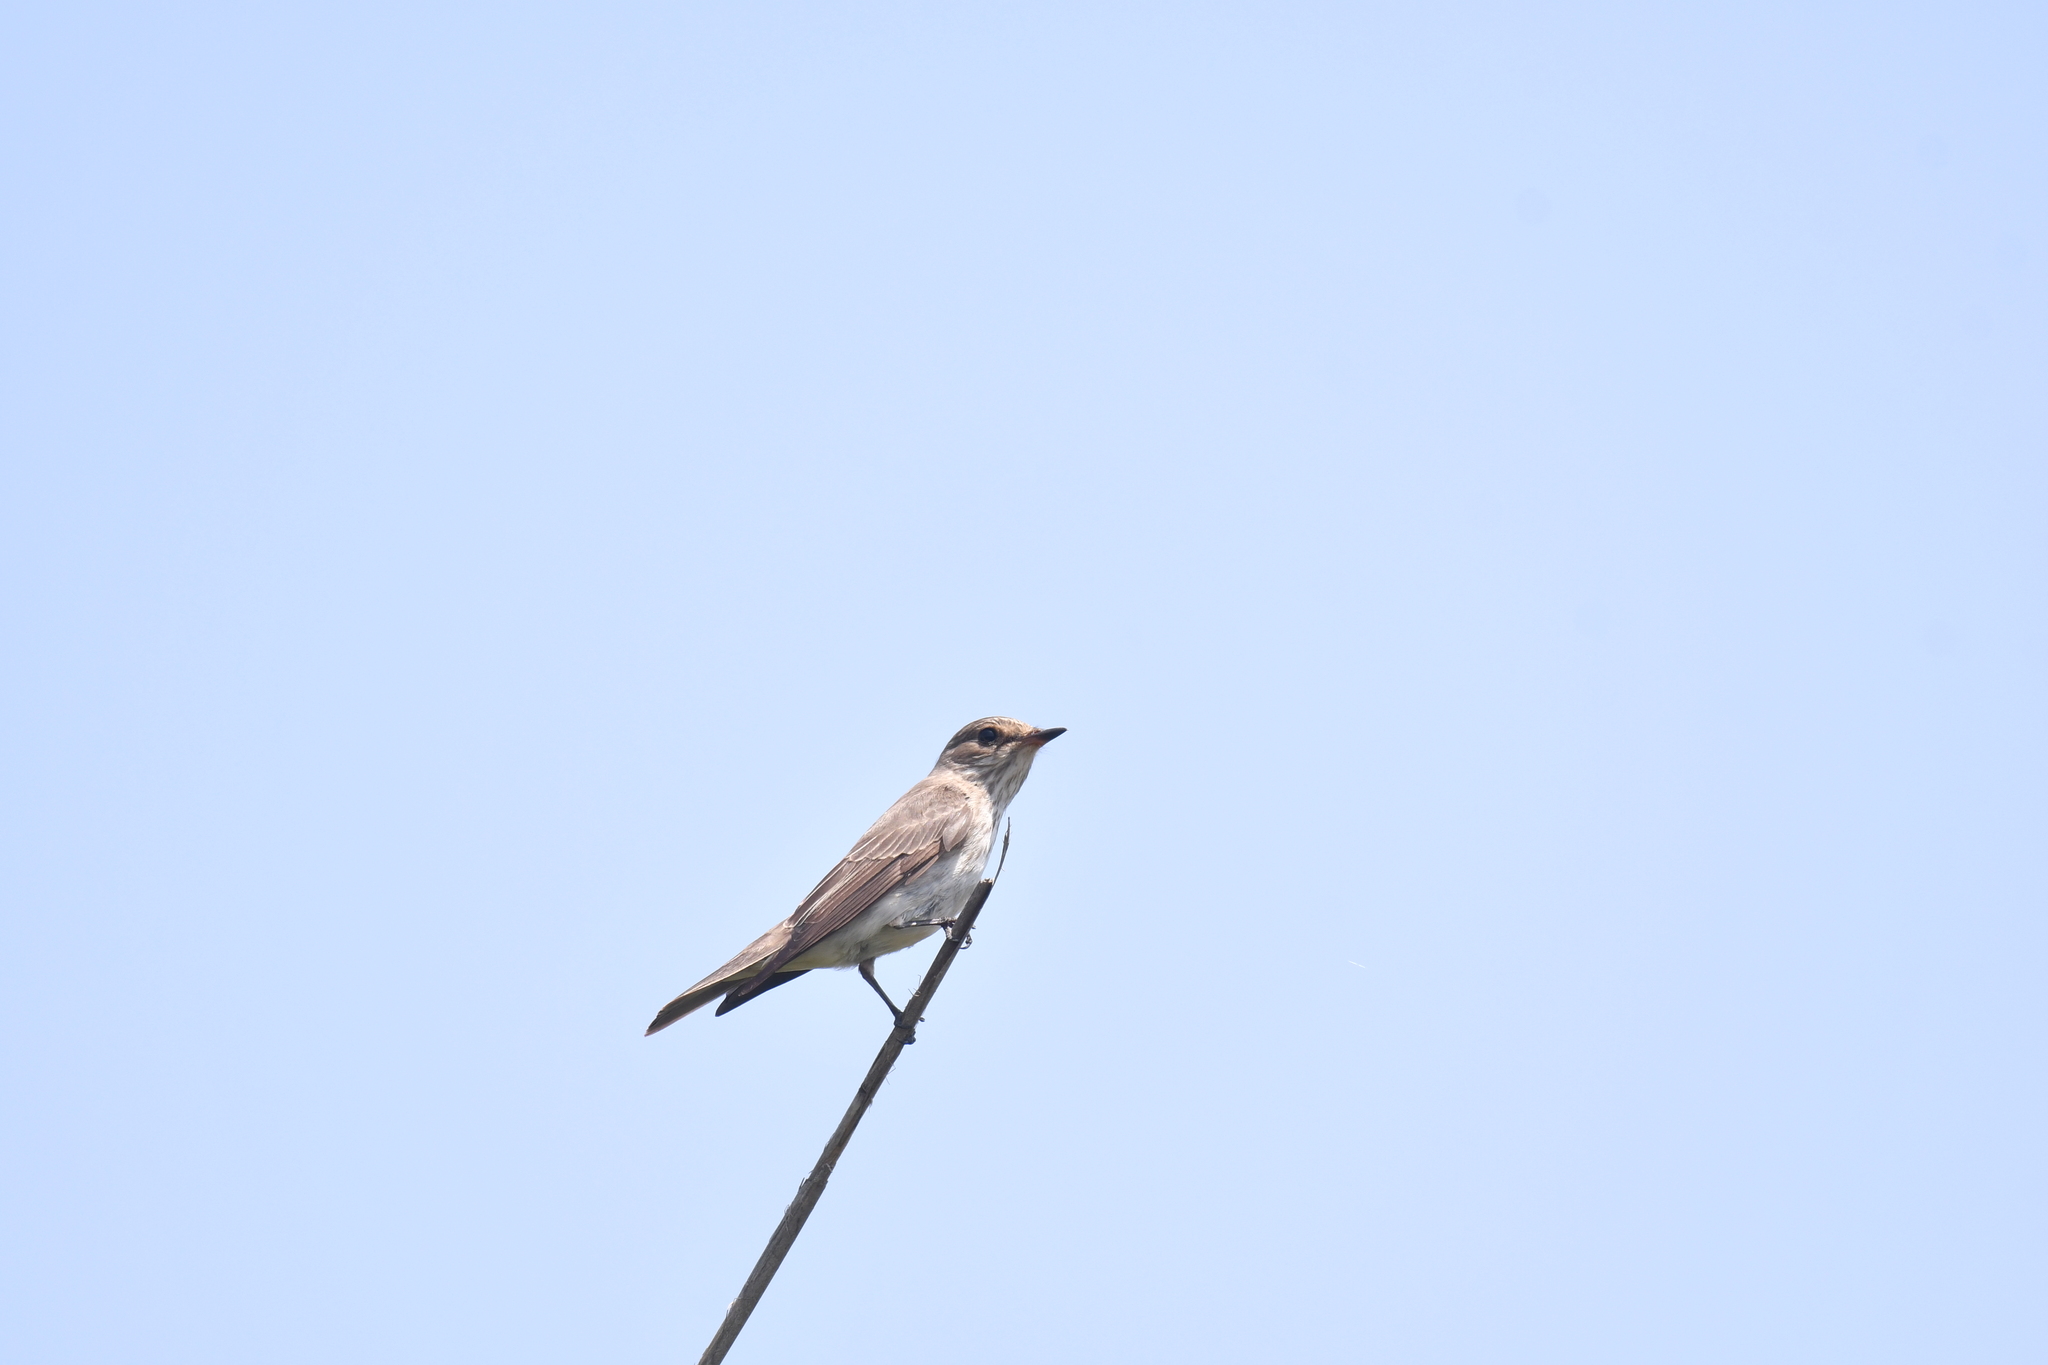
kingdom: Animalia
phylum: Chordata
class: Aves
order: Passeriformes
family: Muscicapidae
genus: Muscicapa
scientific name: Muscicapa striata
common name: Spotted flycatcher
